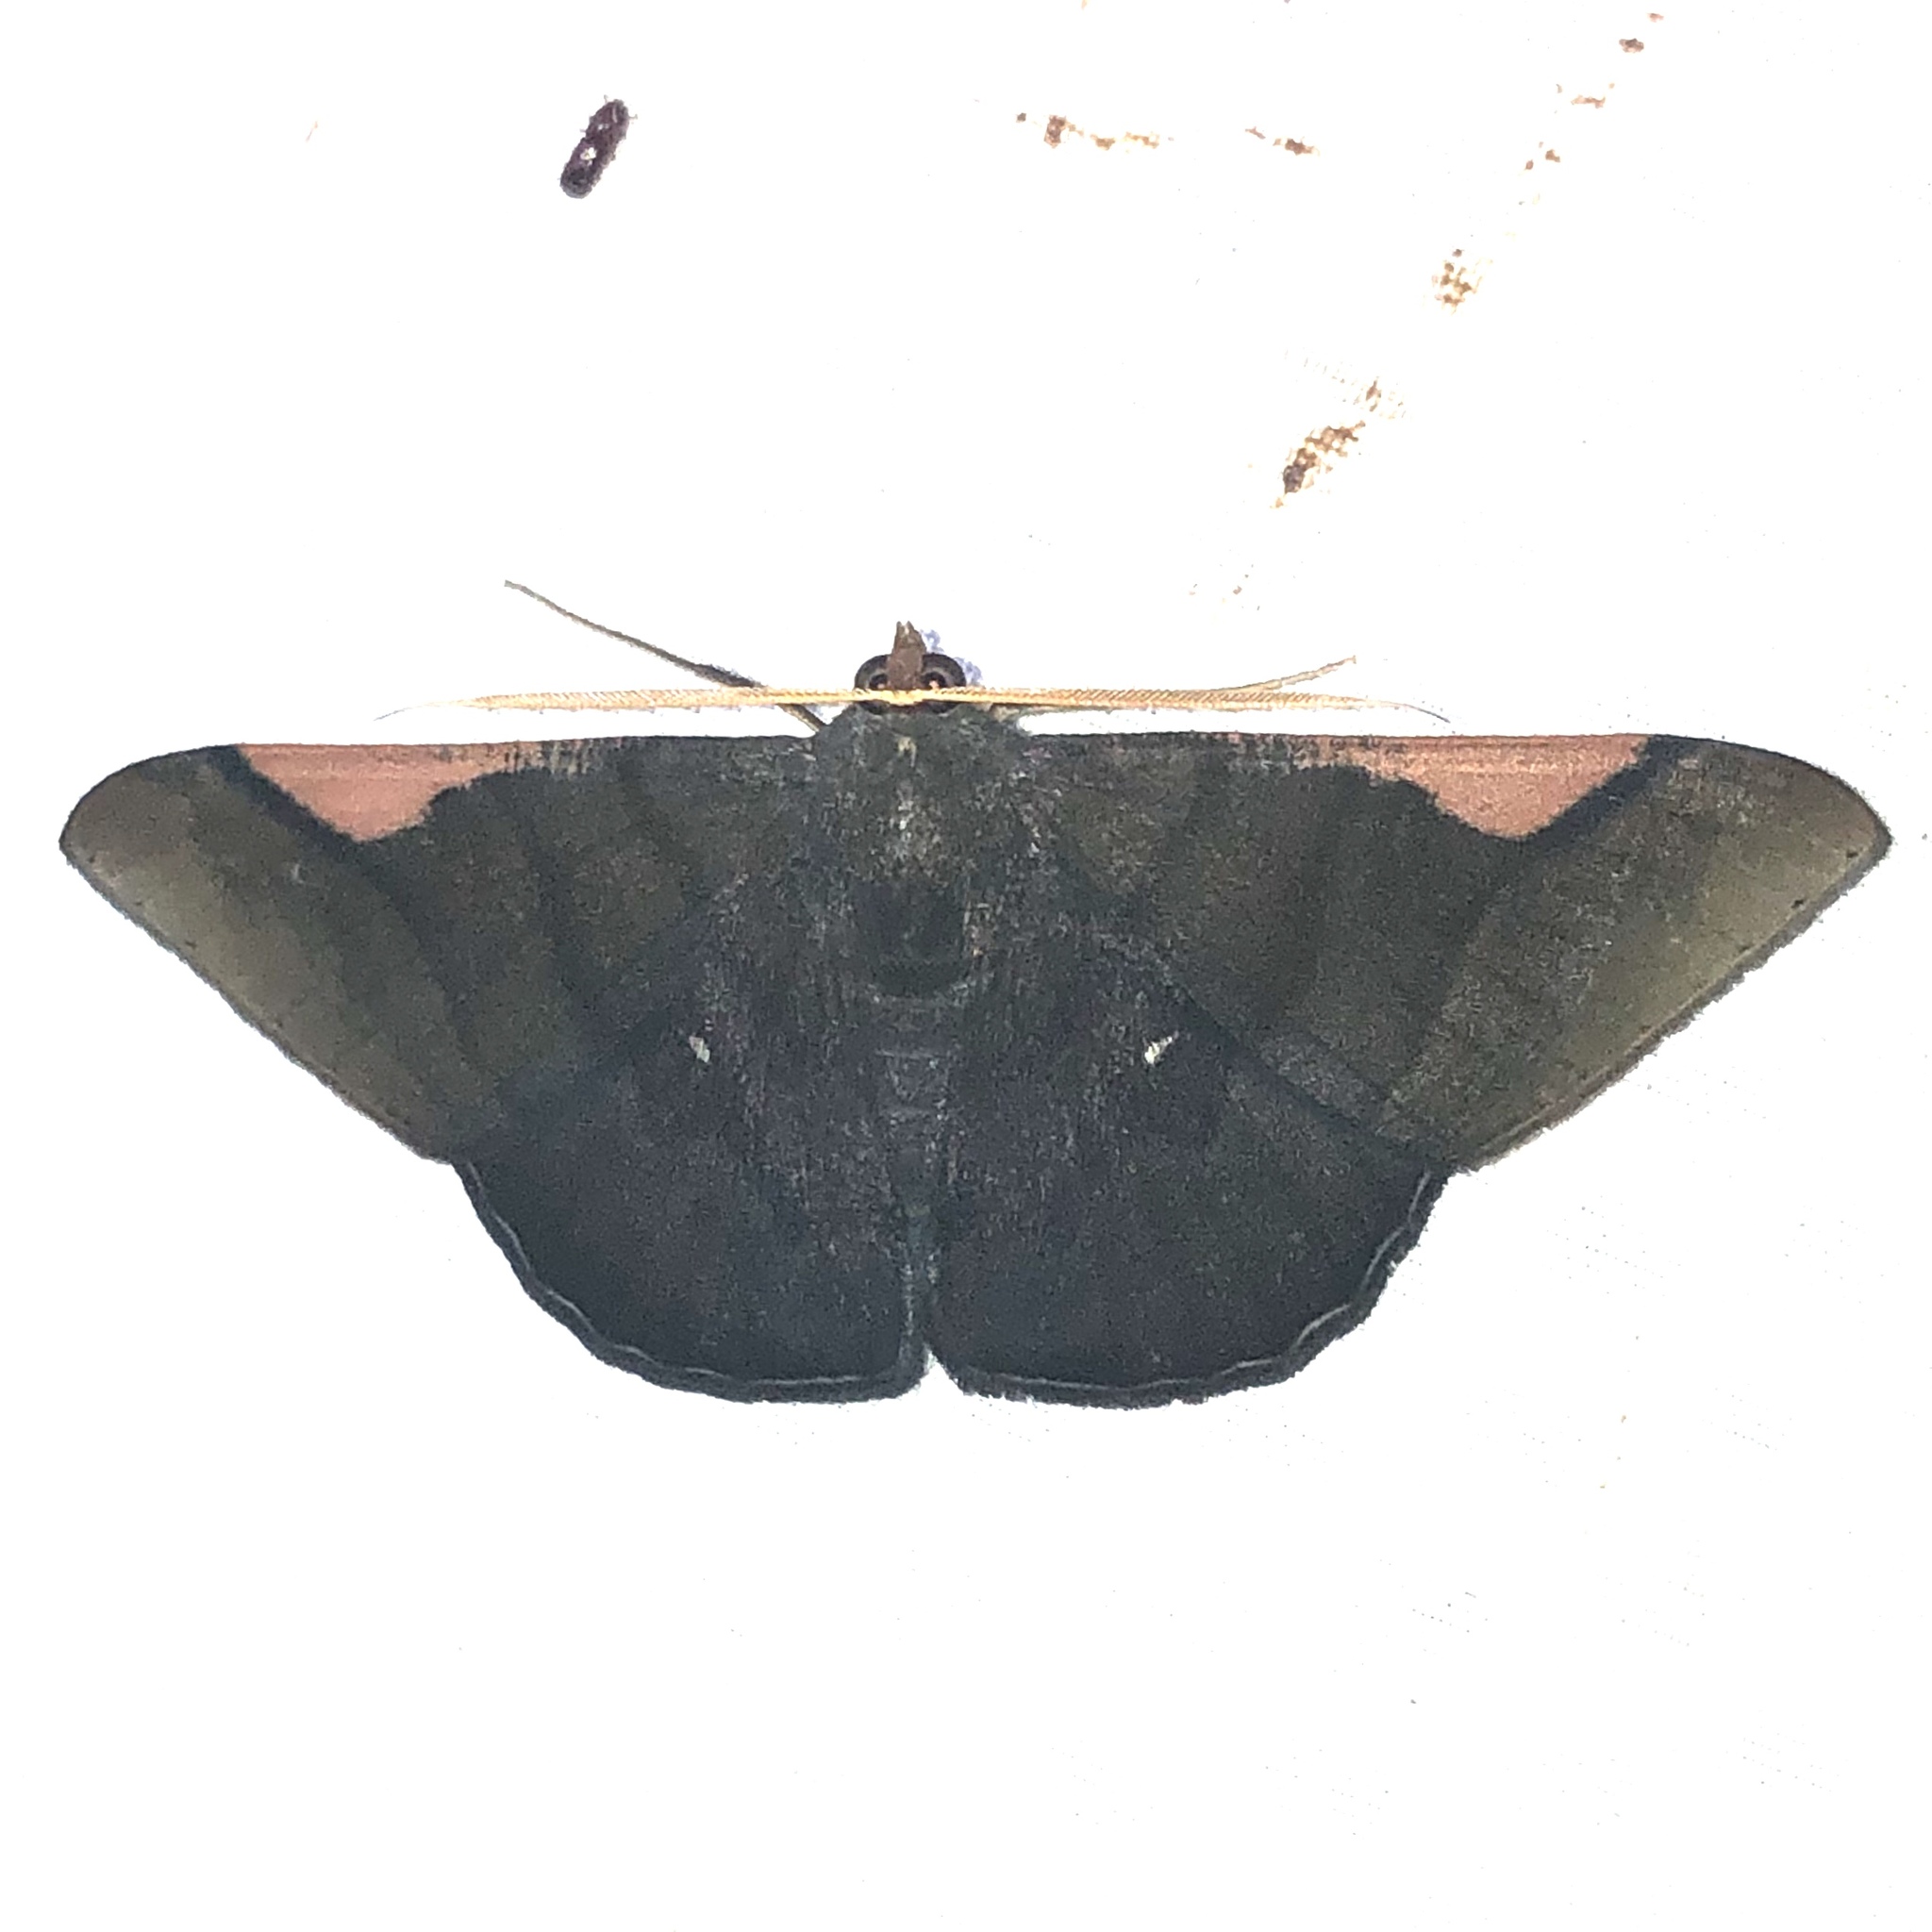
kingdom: Animalia
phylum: Arthropoda
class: Insecta
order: Lepidoptera
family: Geometridae
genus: Sphacelodes
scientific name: Sphacelodes vulneraria
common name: Looper moth
